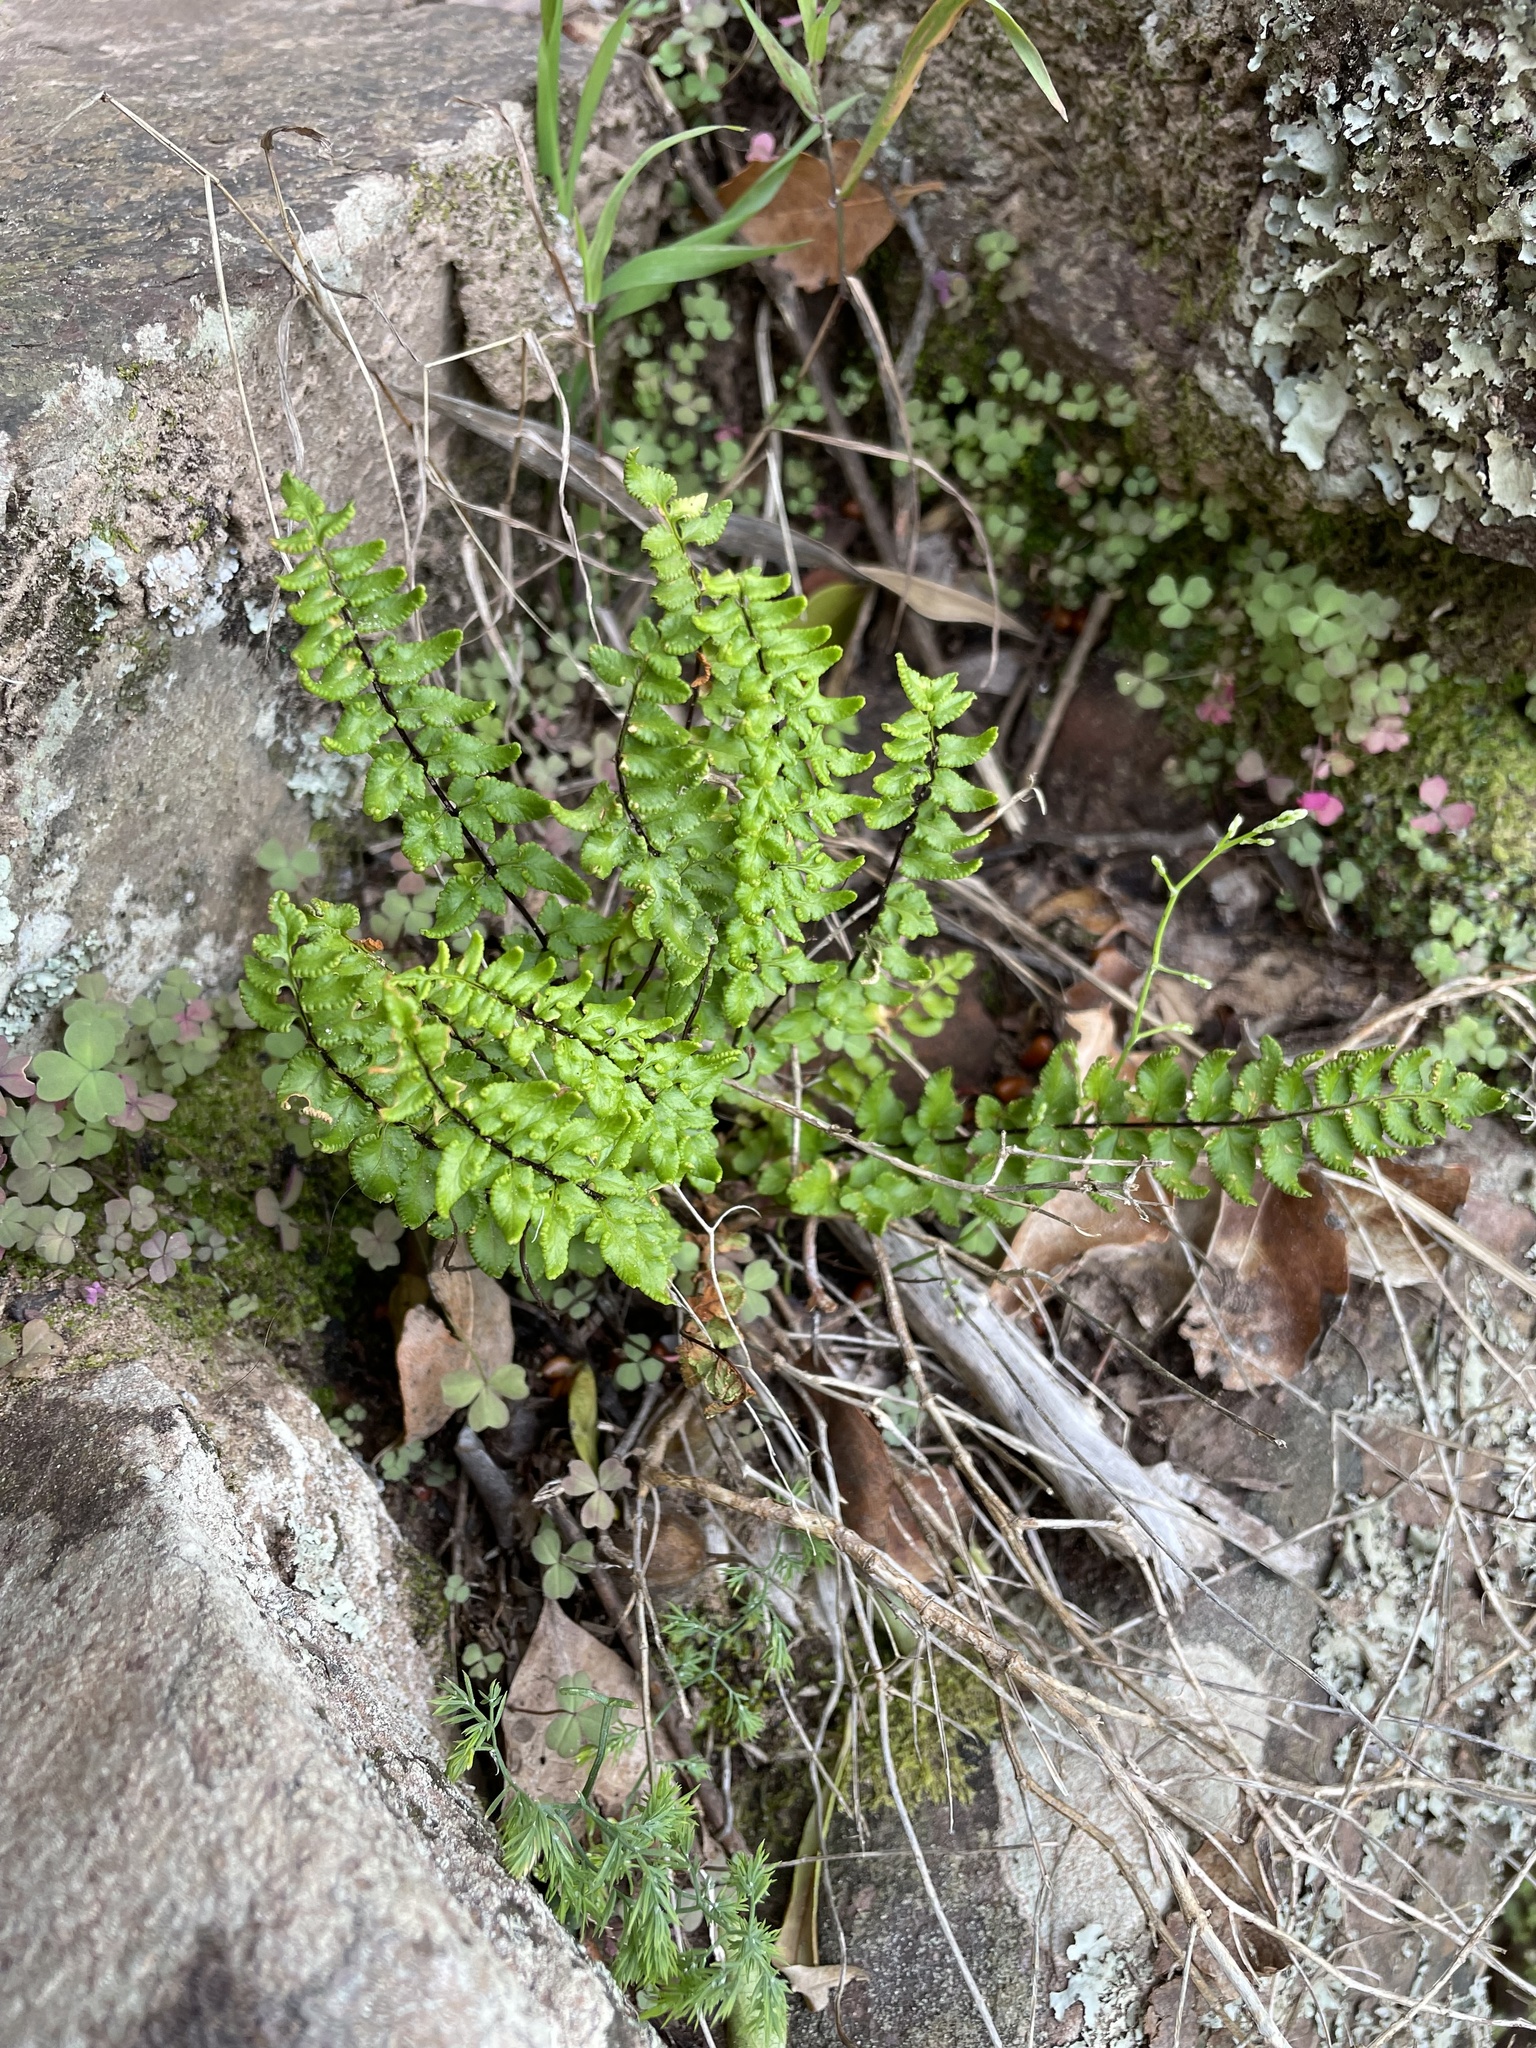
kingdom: Plantae
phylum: Tracheophyta
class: Polypodiopsida
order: Polypodiales
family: Pteridaceae
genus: Cheilanthes
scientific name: Cheilanthes hastata
